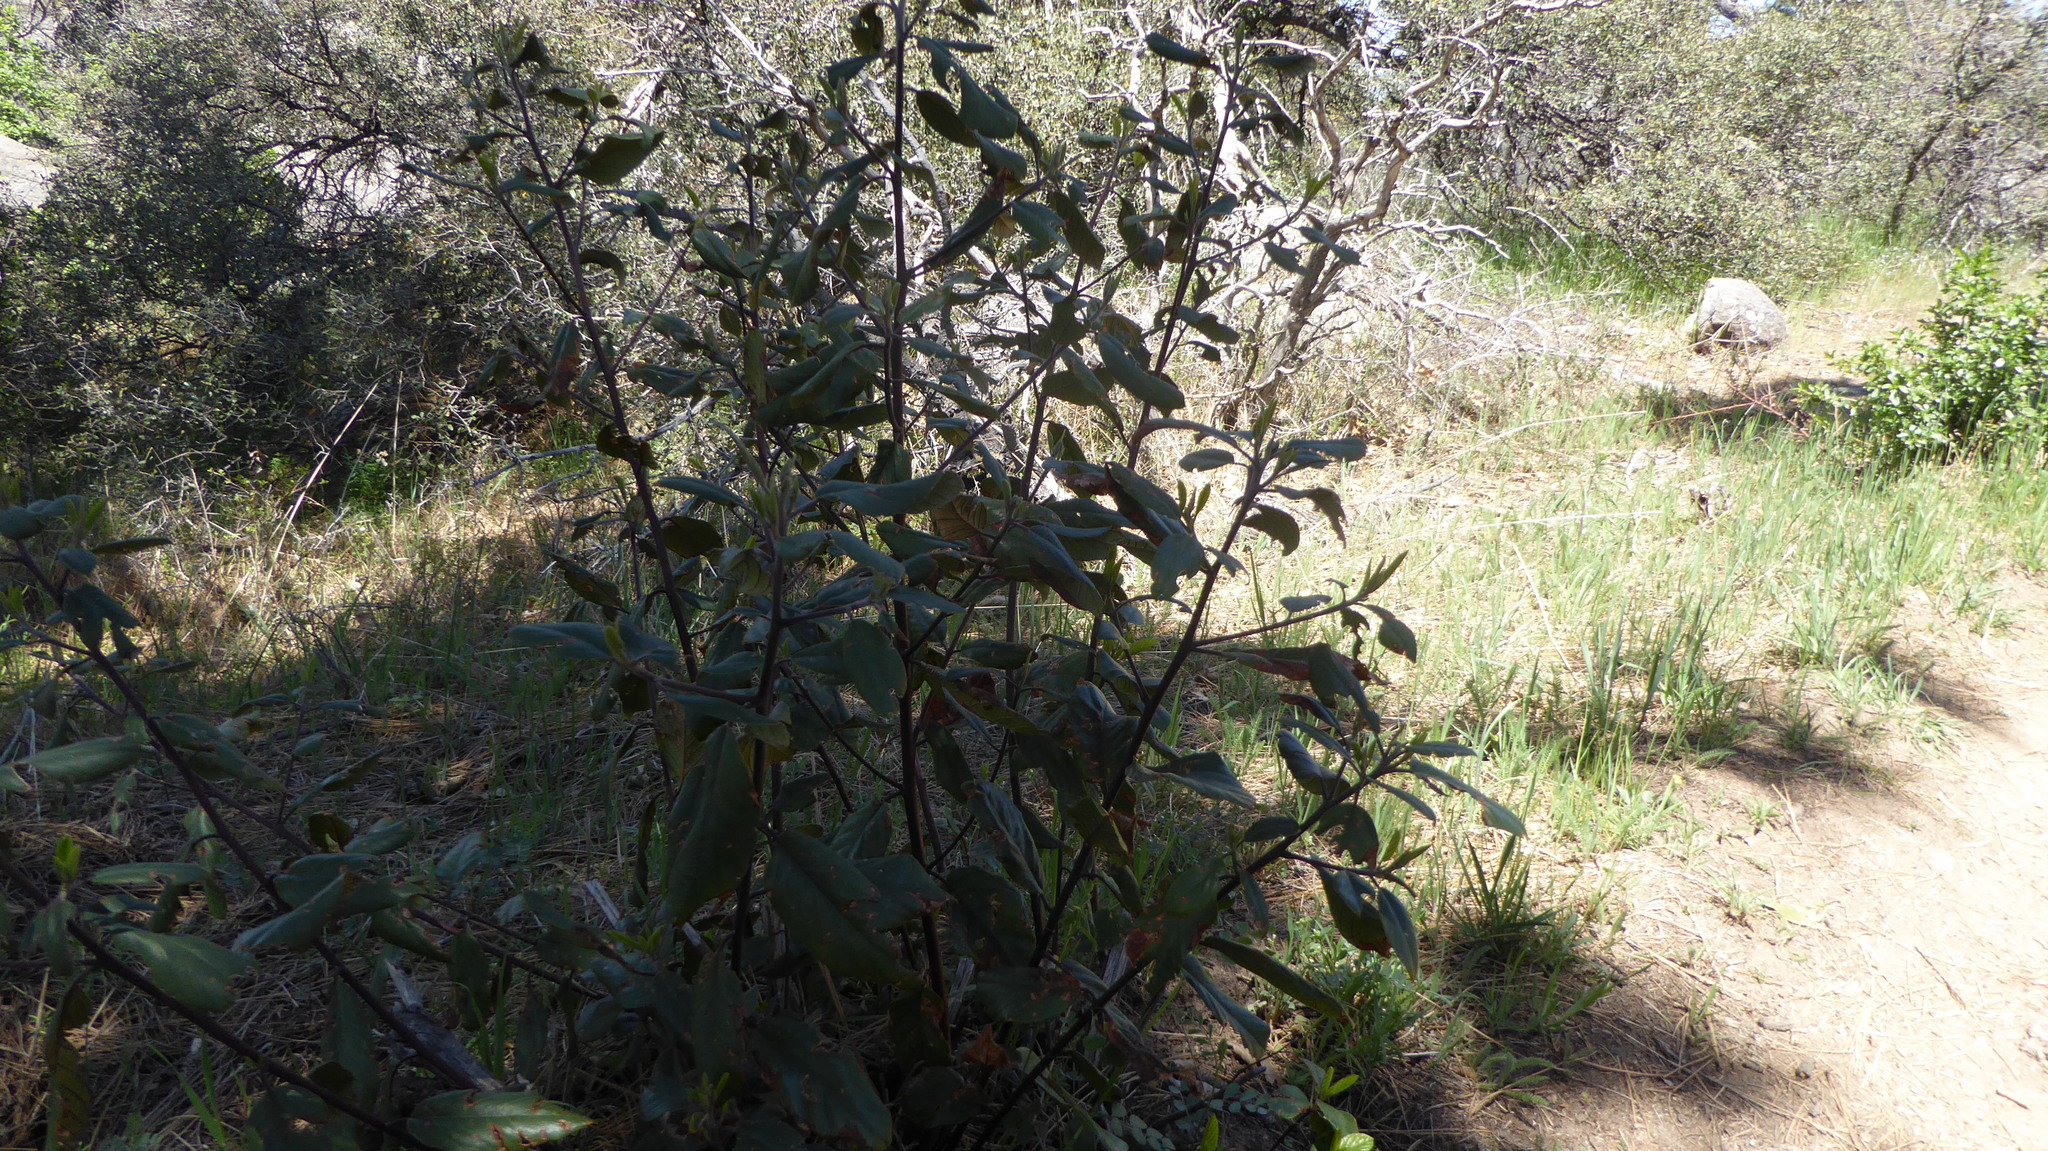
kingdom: Plantae
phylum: Tracheophyta
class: Magnoliopsida
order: Rosales
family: Rhamnaceae
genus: Frangula
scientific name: Frangula californica
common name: California buckthorn
